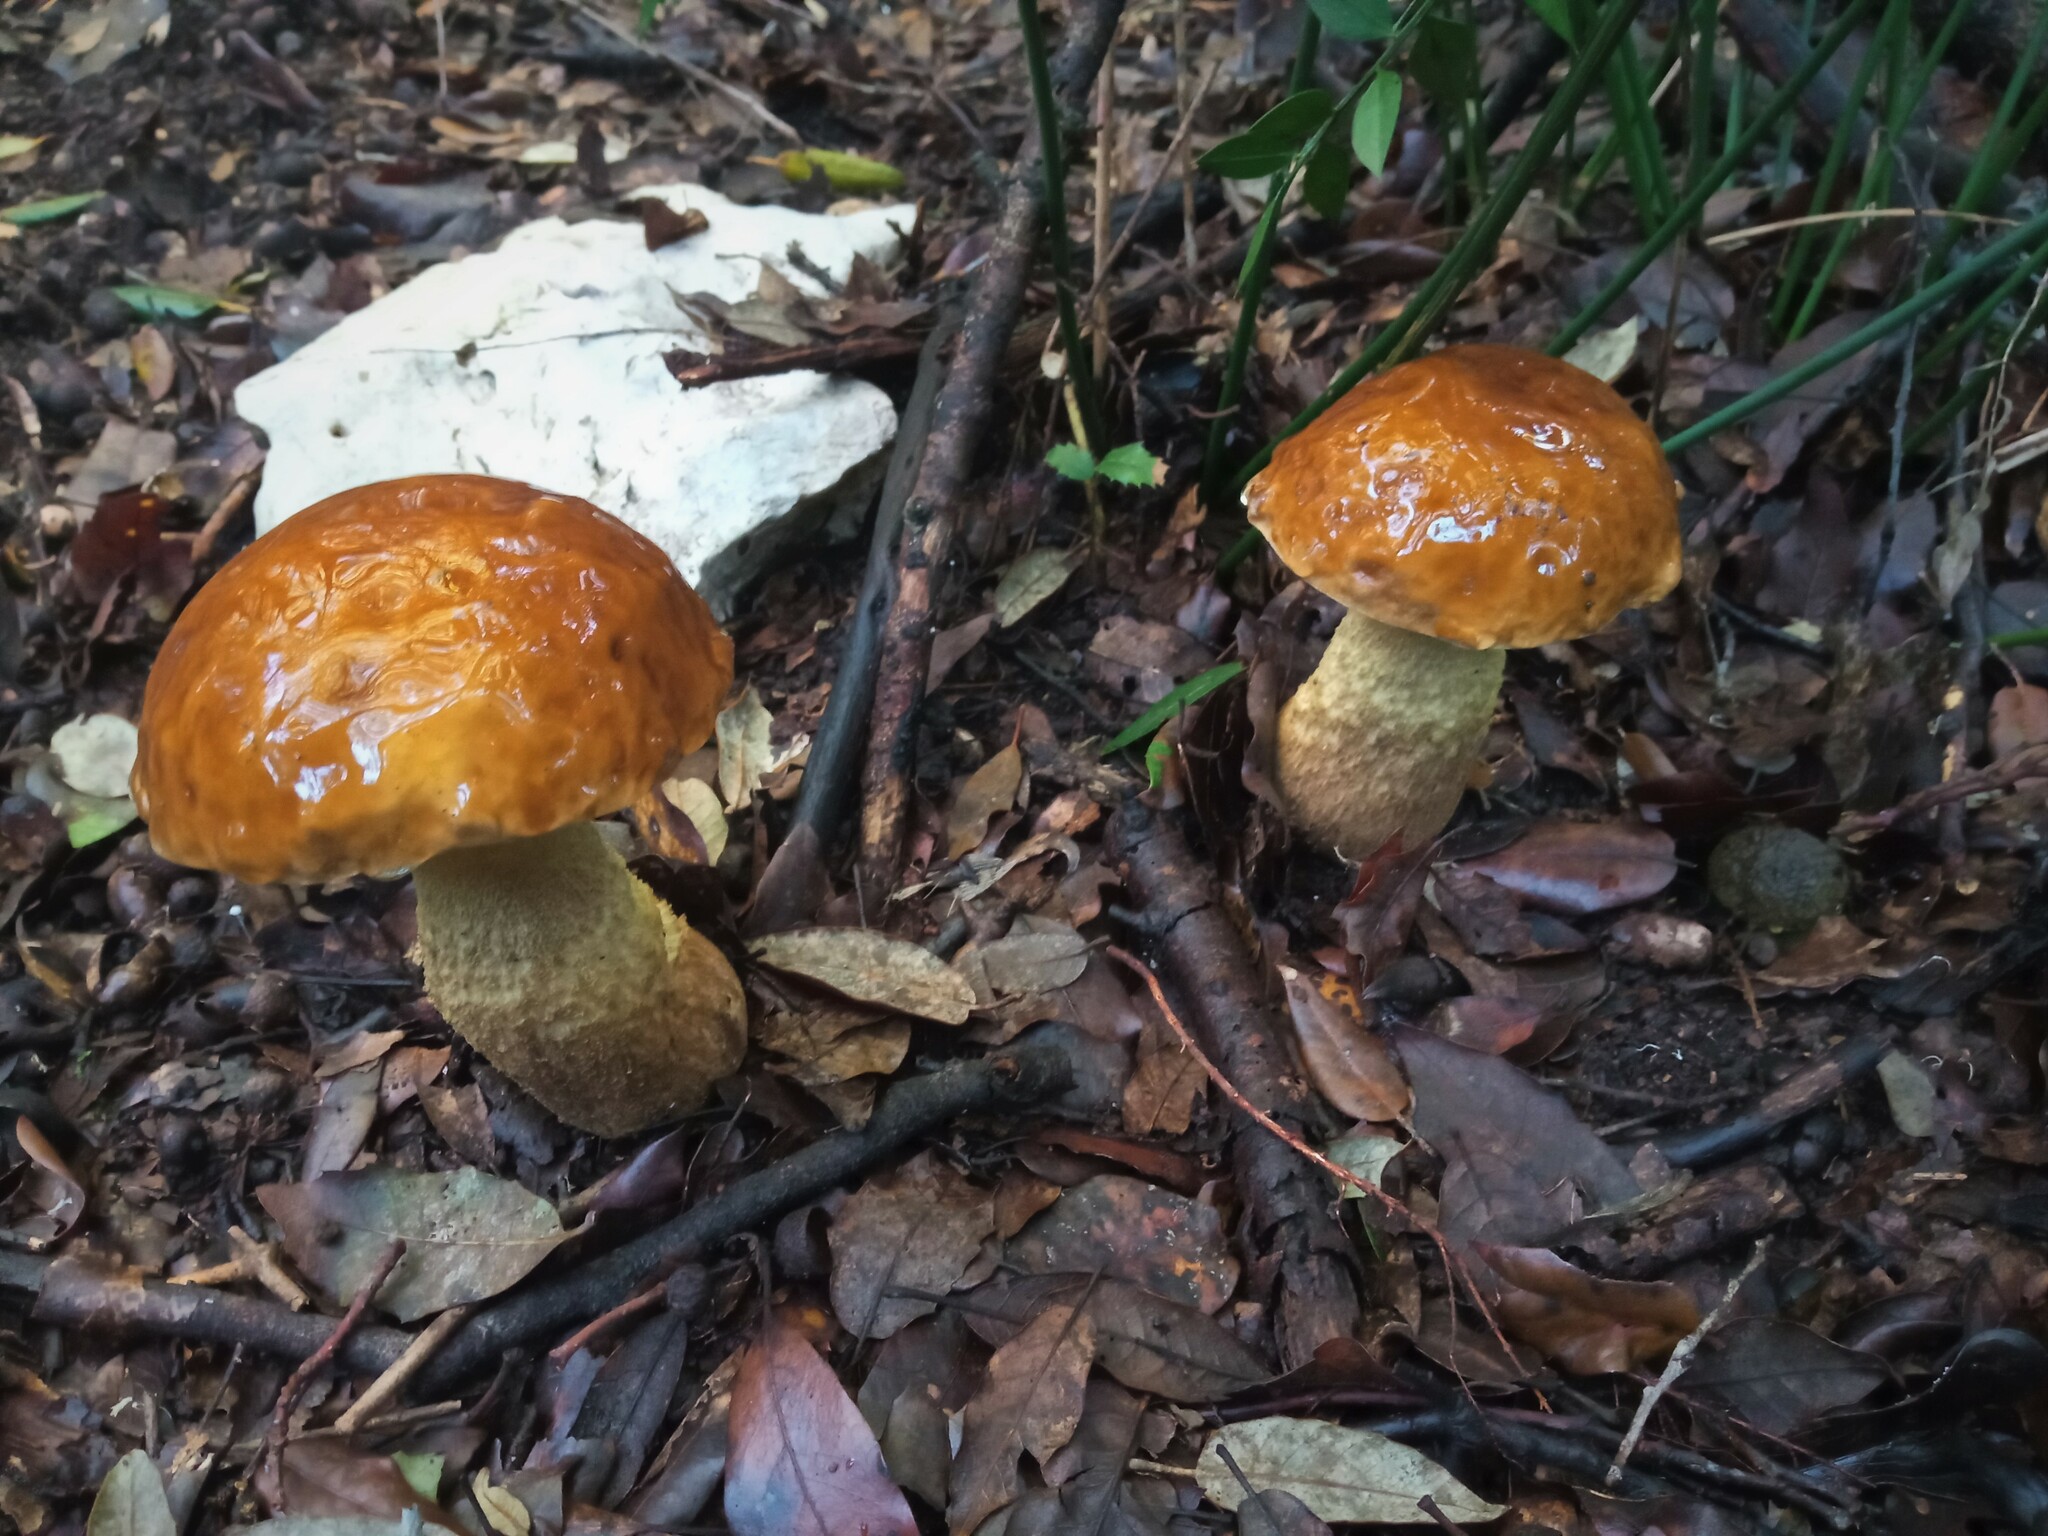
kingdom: Fungi
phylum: Basidiomycota
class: Agaricomycetes
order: Boletales
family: Boletaceae
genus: Leccinellum
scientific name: Leccinellum lepidum
